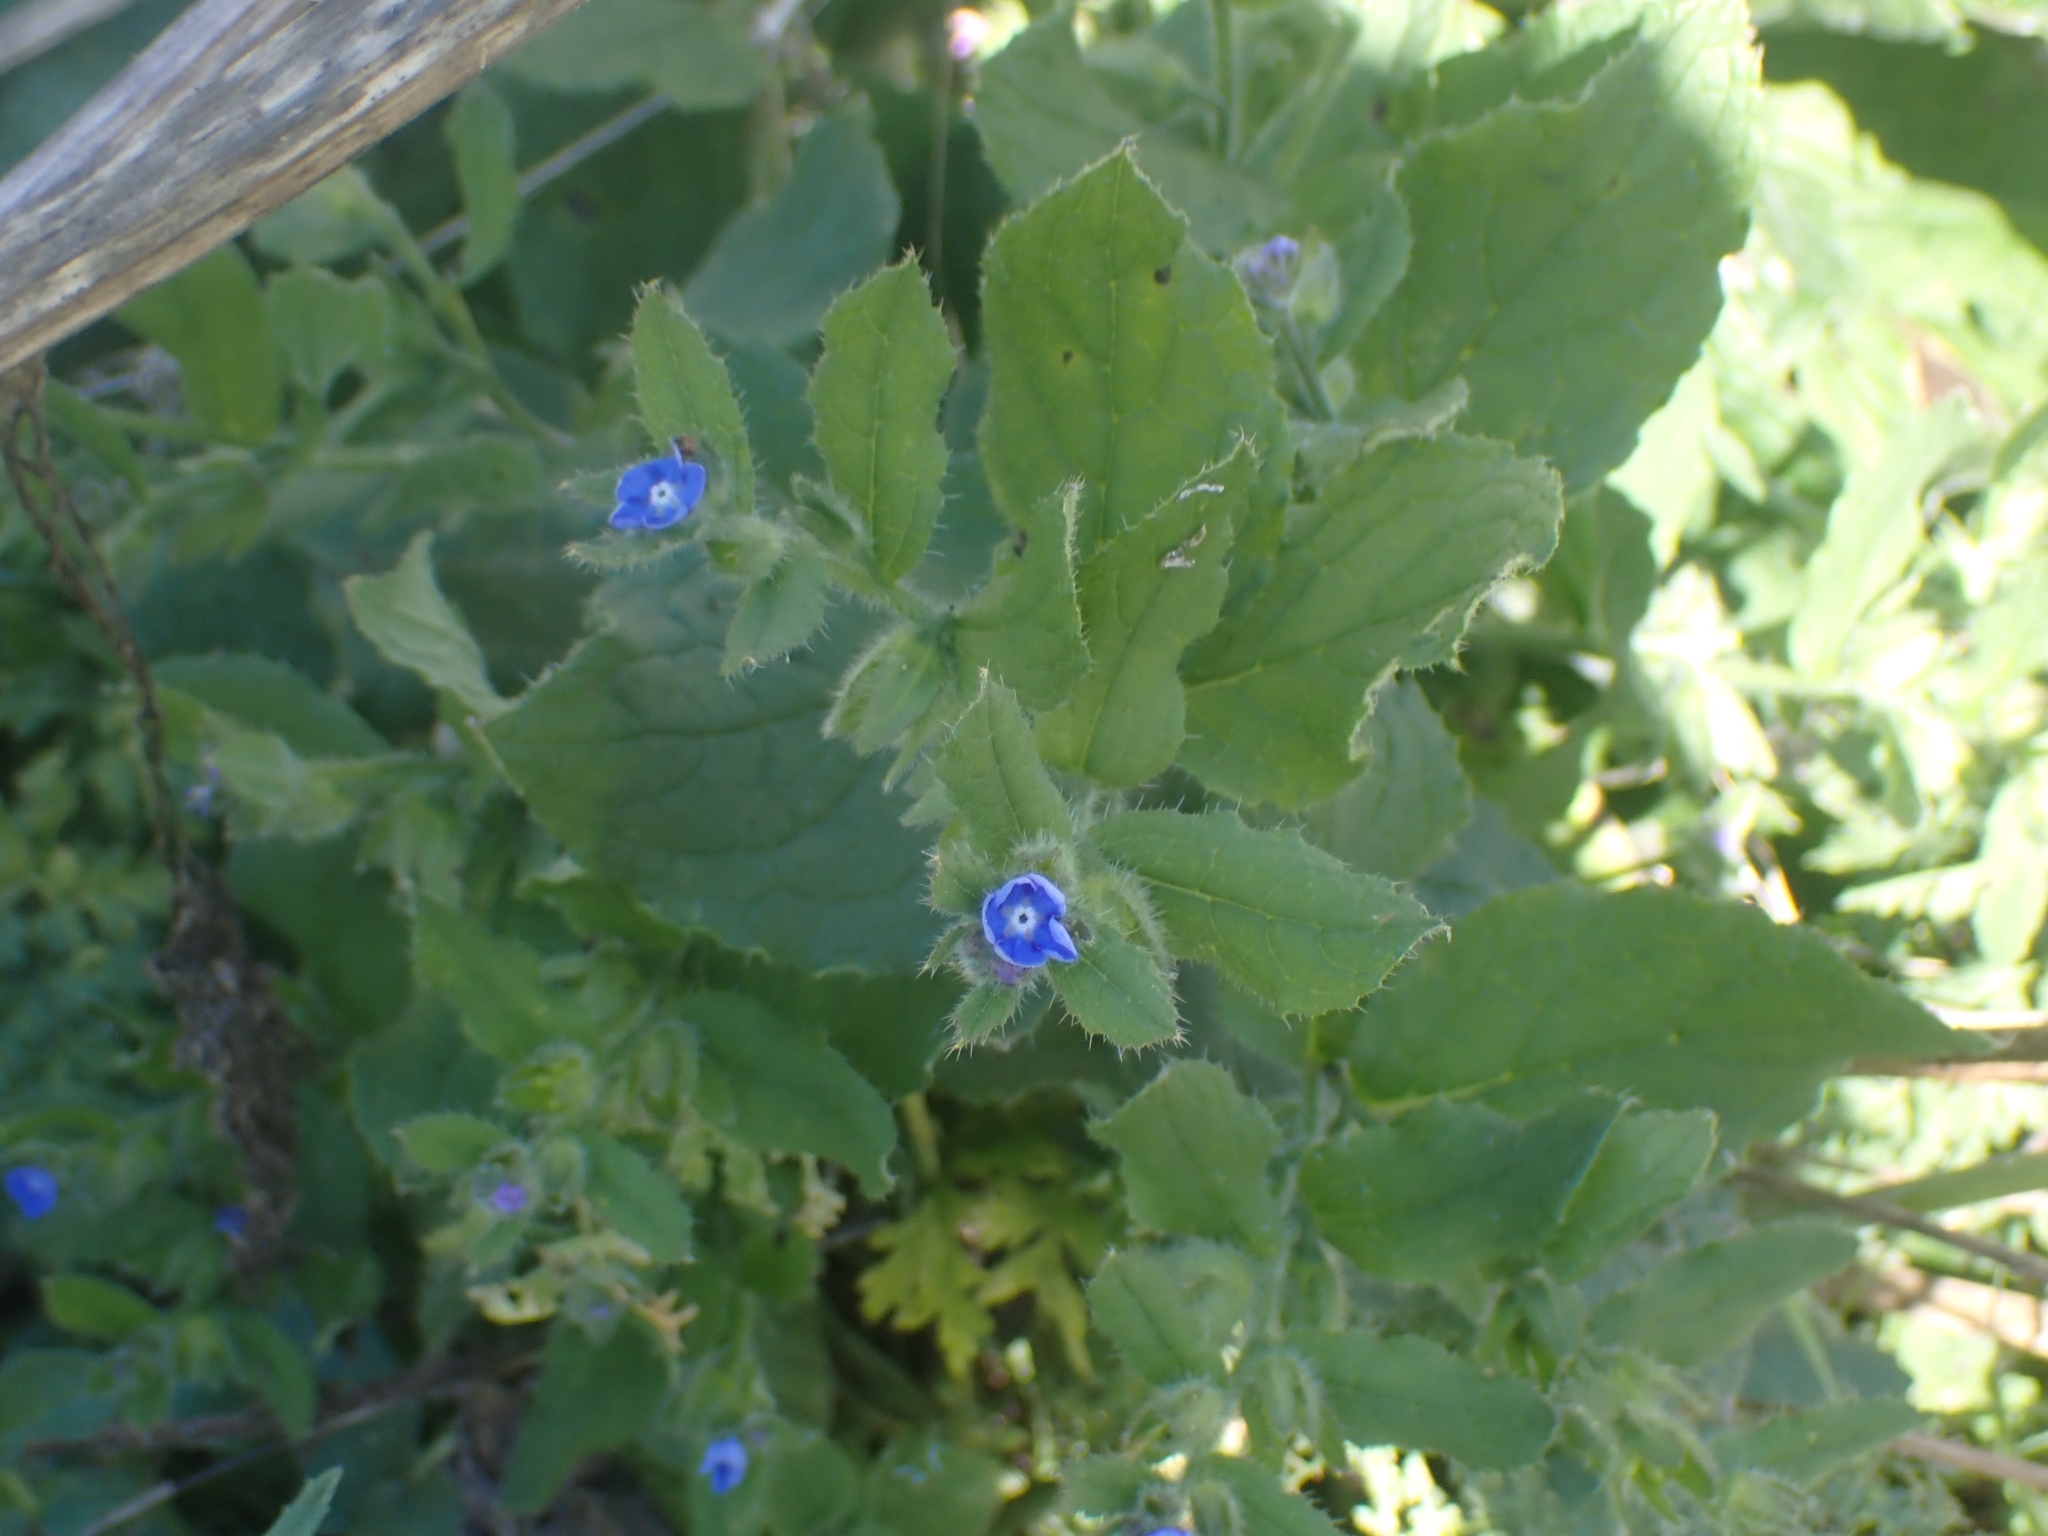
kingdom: Plantae
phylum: Tracheophyta
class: Magnoliopsida
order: Boraginales
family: Boraginaceae
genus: Pentaglottis
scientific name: Pentaglottis sempervirens
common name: Green alkanet
